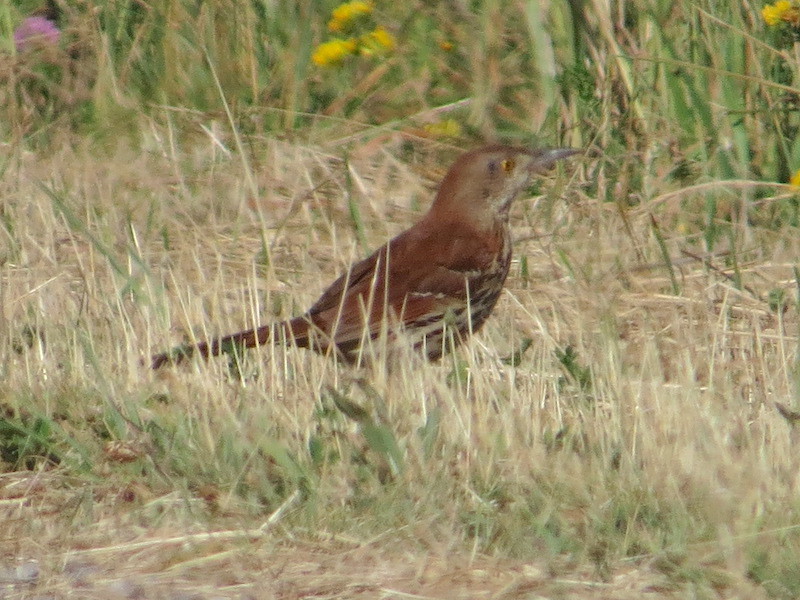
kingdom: Animalia
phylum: Chordata
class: Aves
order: Passeriformes
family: Mimidae
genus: Toxostoma
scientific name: Toxostoma rufum
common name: Brown thrasher
